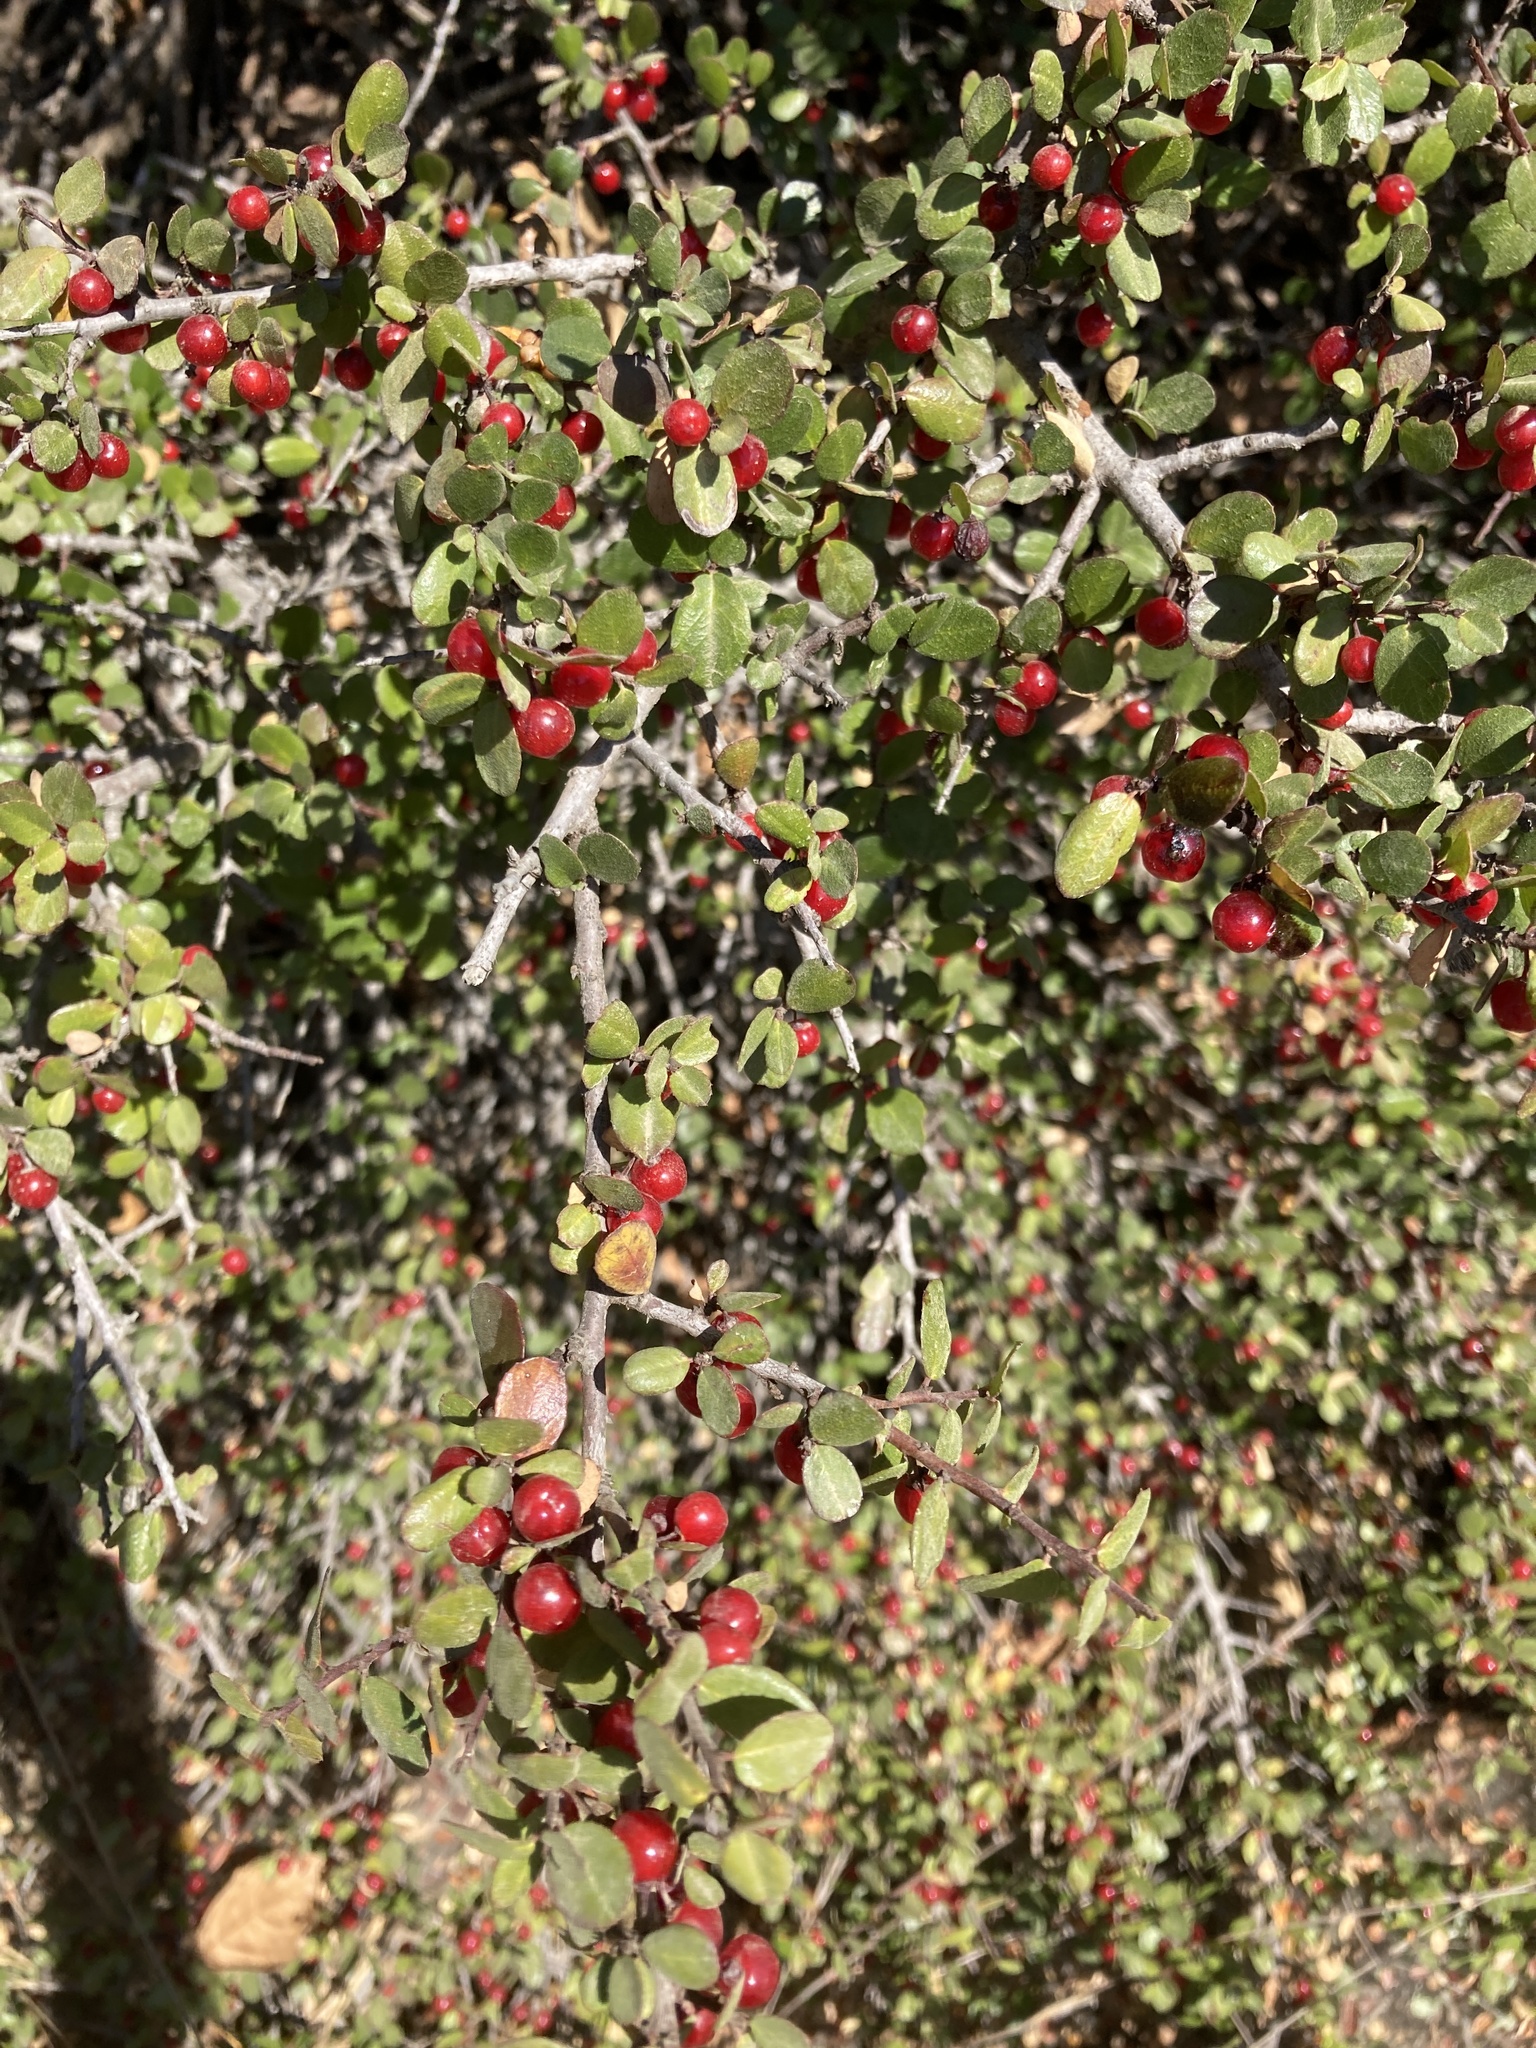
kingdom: Plantae
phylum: Tracheophyta
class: Magnoliopsida
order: Rosales
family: Rhamnaceae
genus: Endotropis
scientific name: Endotropis crocea
